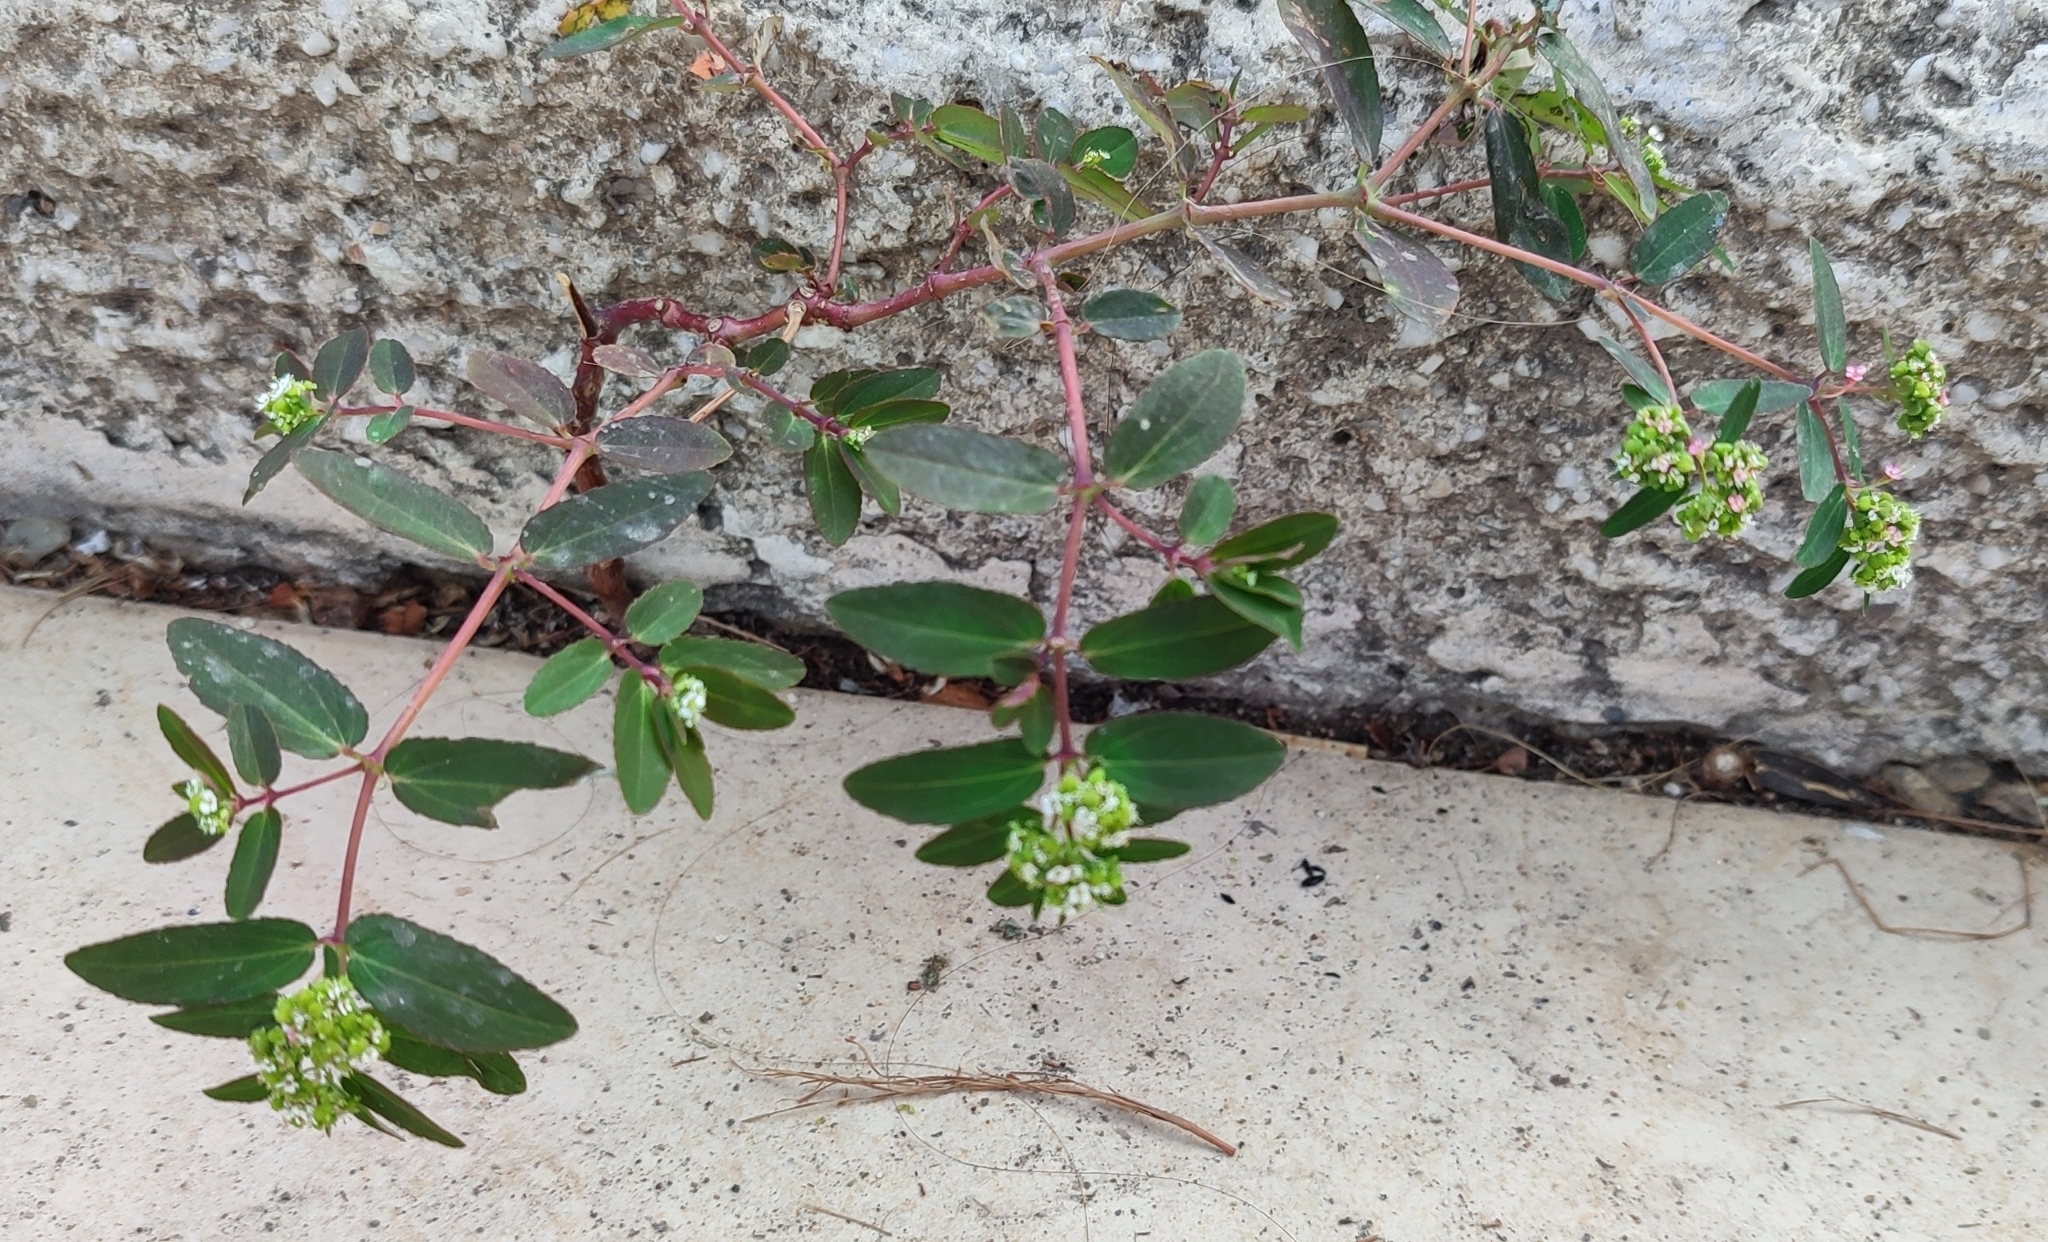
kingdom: Plantae
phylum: Tracheophyta
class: Magnoliopsida
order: Malpighiales
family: Euphorbiaceae
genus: Euphorbia
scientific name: Euphorbia hypericifolia
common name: Graceful sandmat
